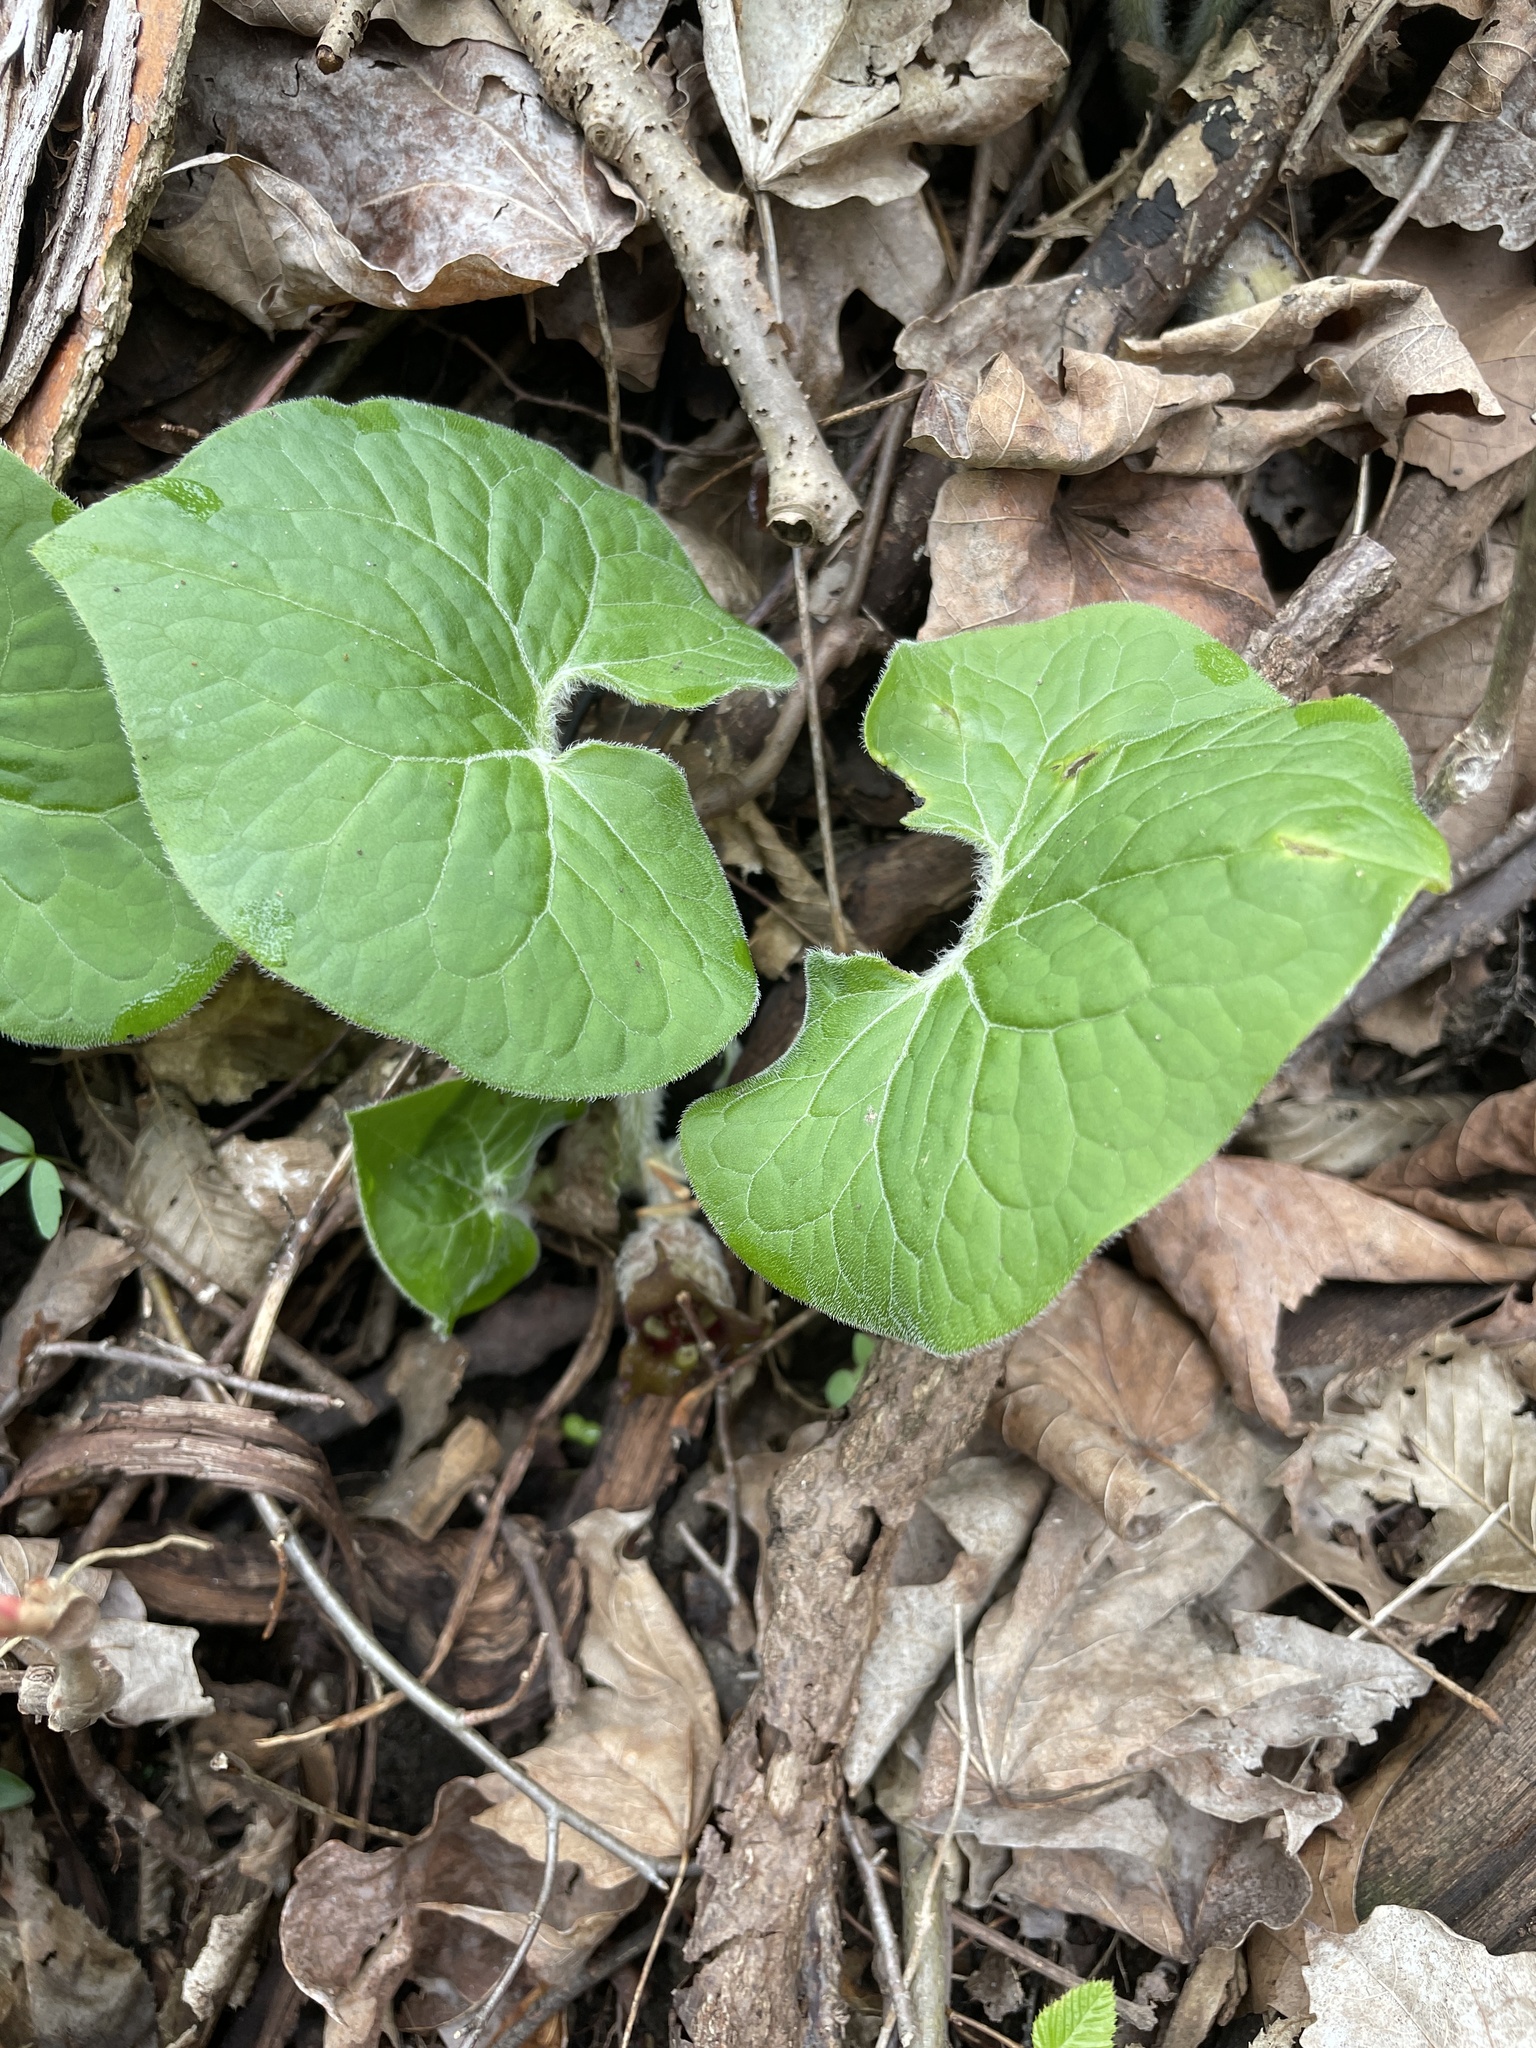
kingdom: Plantae
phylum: Tracheophyta
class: Magnoliopsida
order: Piperales
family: Aristolochiaceae
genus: Asarum
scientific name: Asarum canadense
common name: Wild ginger
